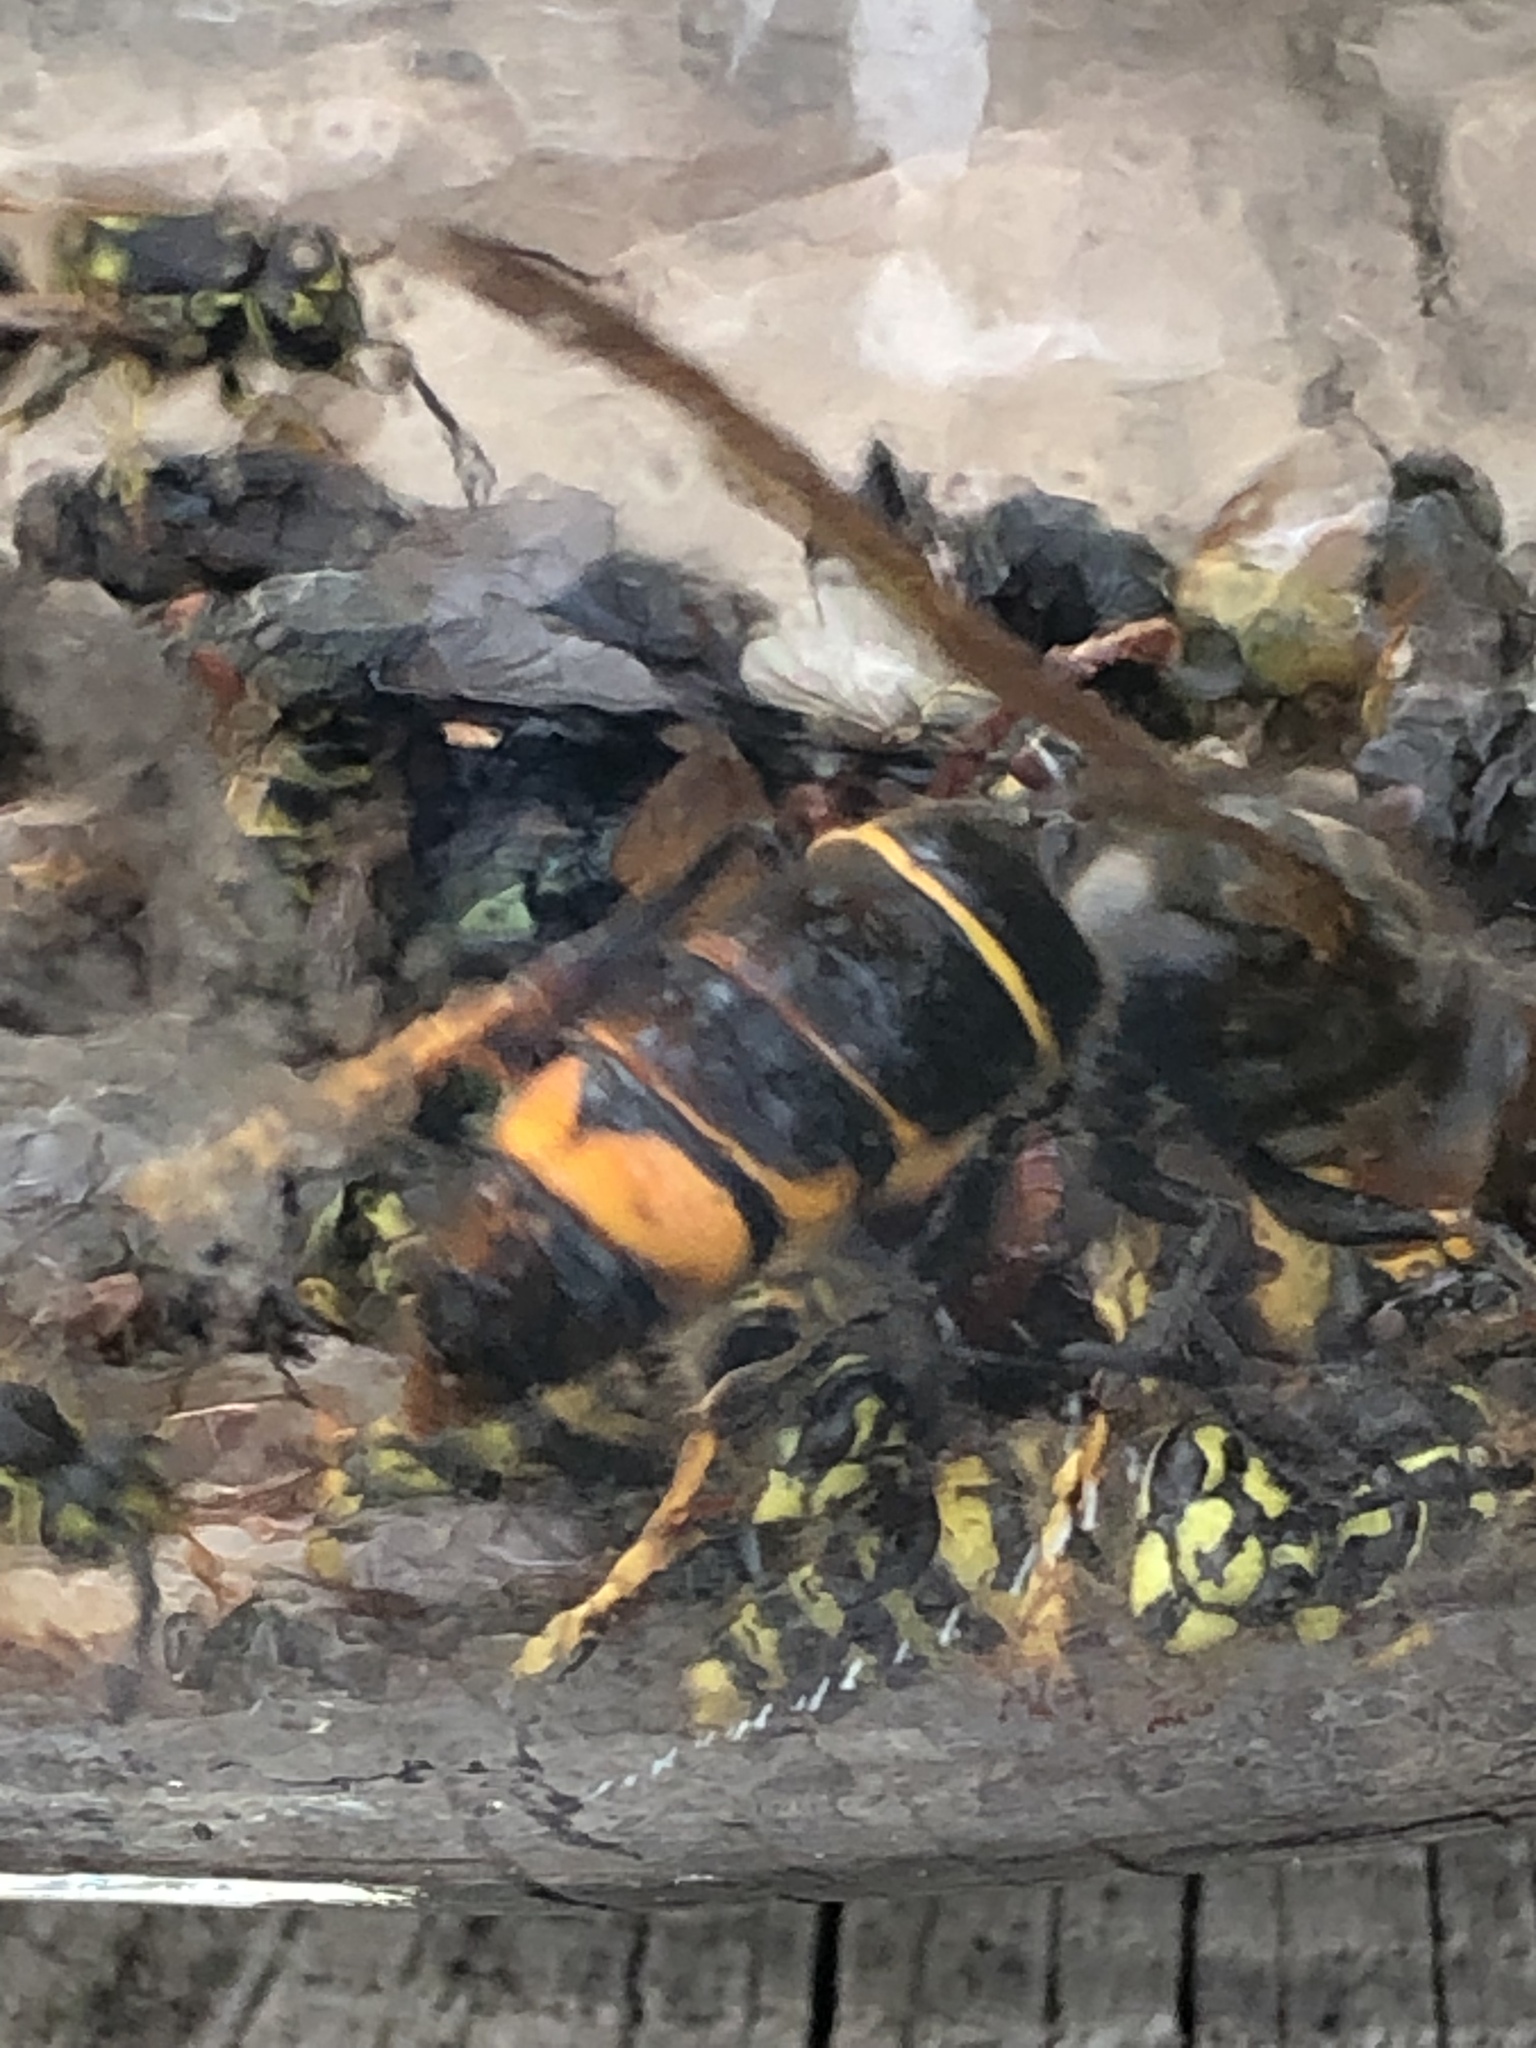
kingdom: Animalia
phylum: Arthropoda
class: Insecta
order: Hymenoptera
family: Vespidae
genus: Vespa
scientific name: Vespa velutina
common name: Asian hornet
